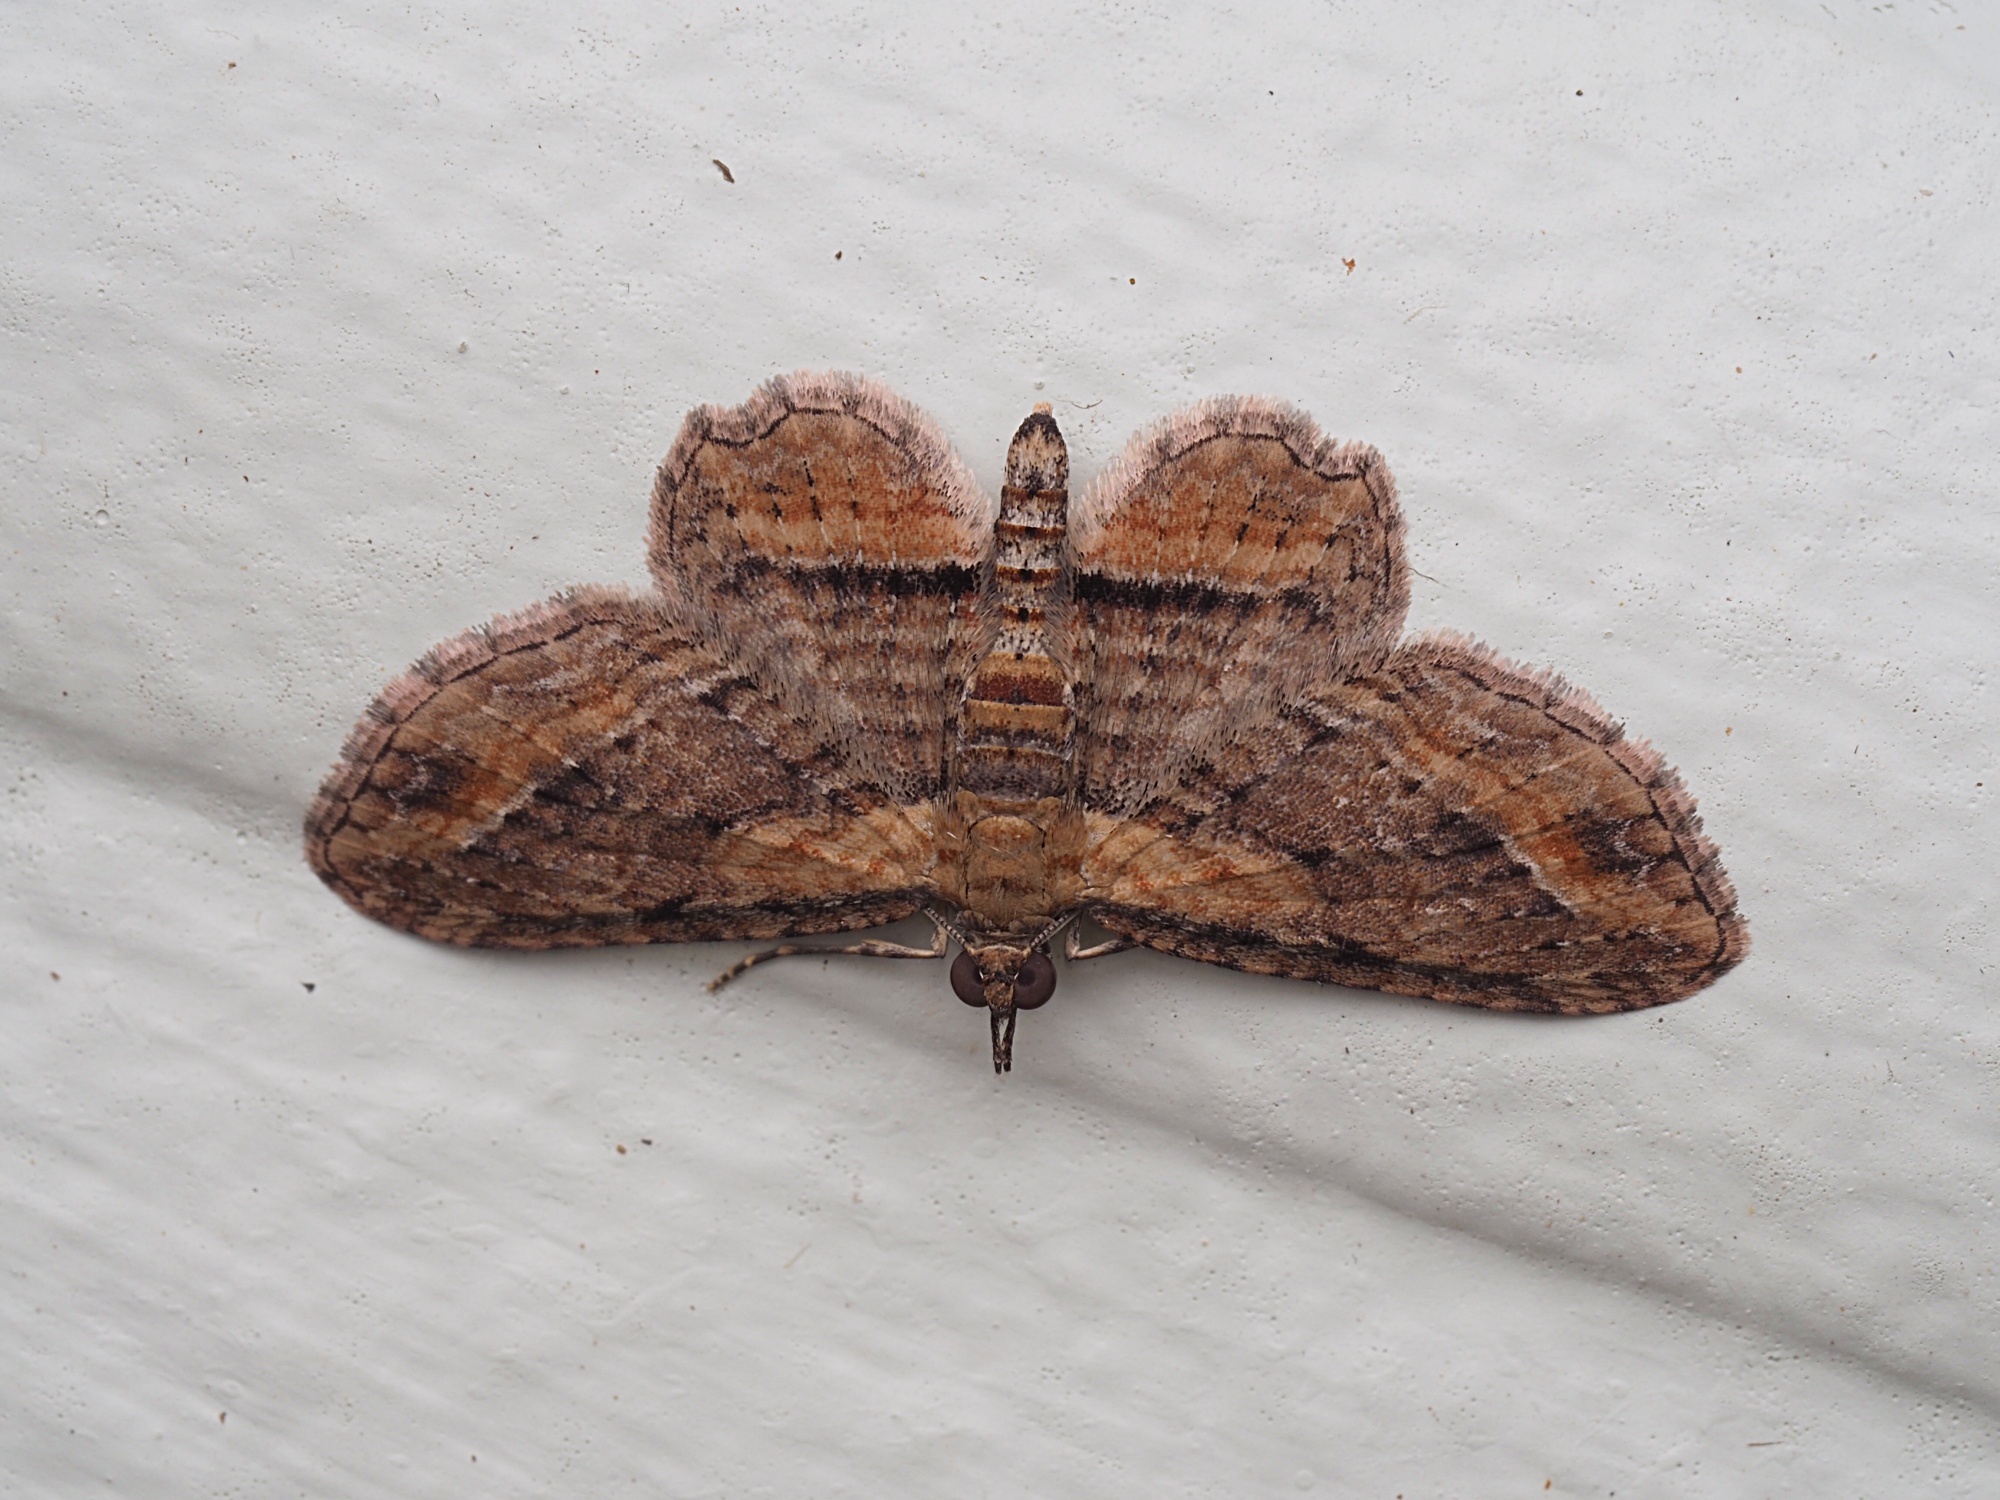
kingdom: Animalia
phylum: Arthropoda
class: Insecta
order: Lepidoptera
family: Geometridae
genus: Chloroclystis
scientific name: Chloroclystis filata
